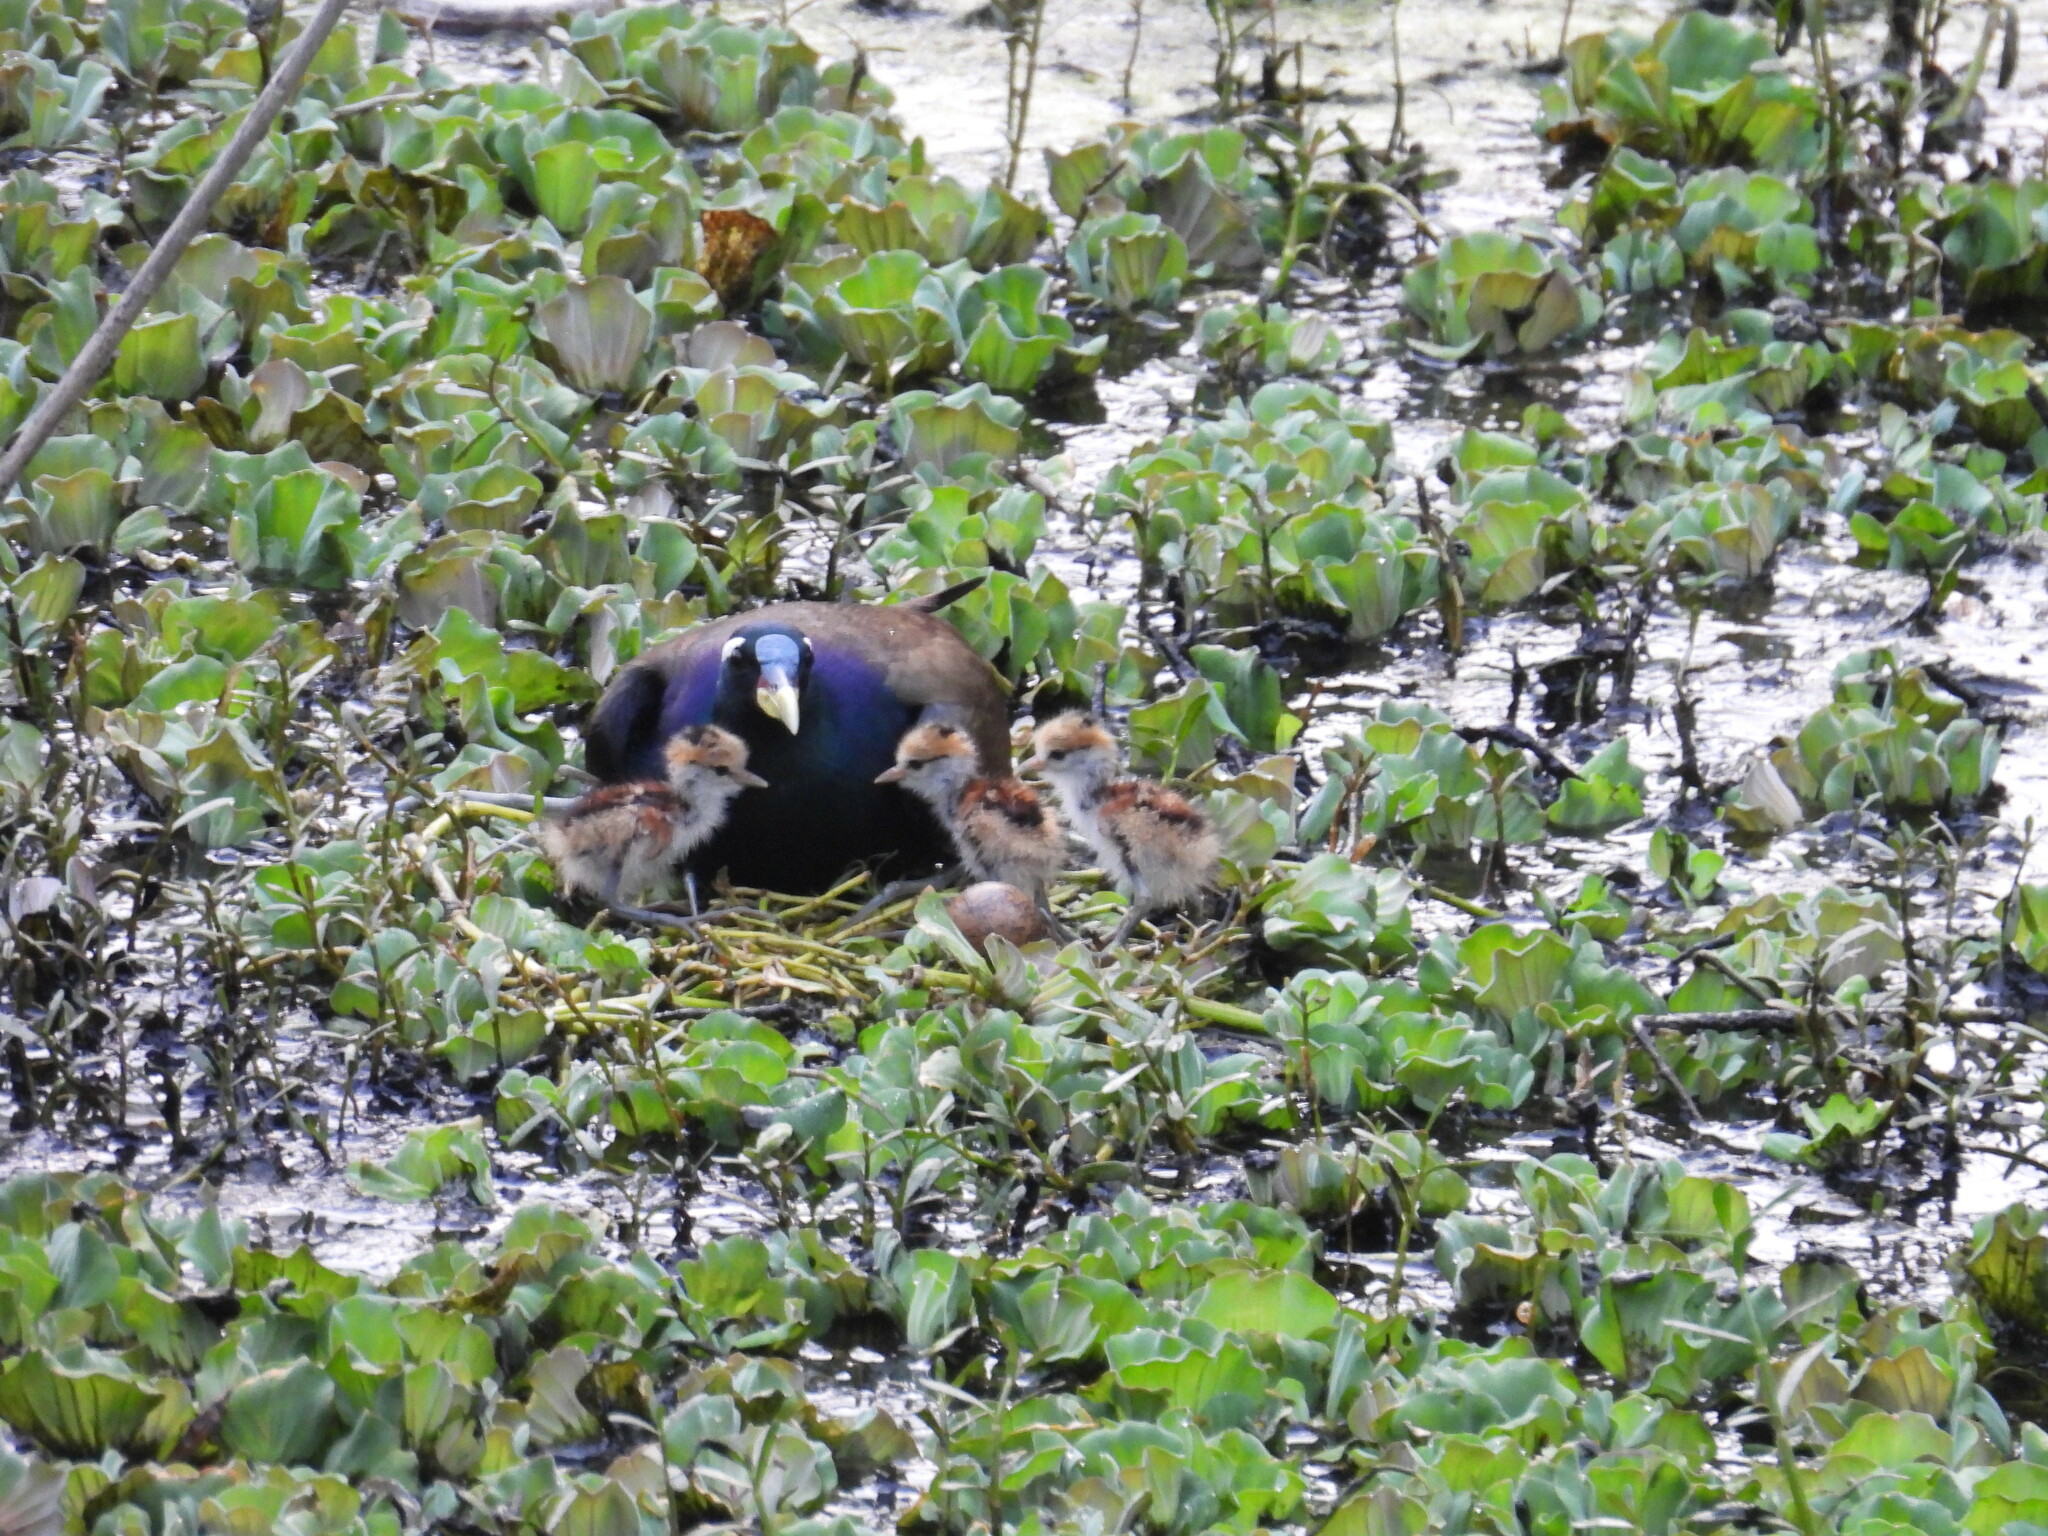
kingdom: Animalia
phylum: Chordata
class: Aves
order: Charadriiformes
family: Jacanidae
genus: Metopidius
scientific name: Metopidius indicus
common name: Bronze-winged jacana
